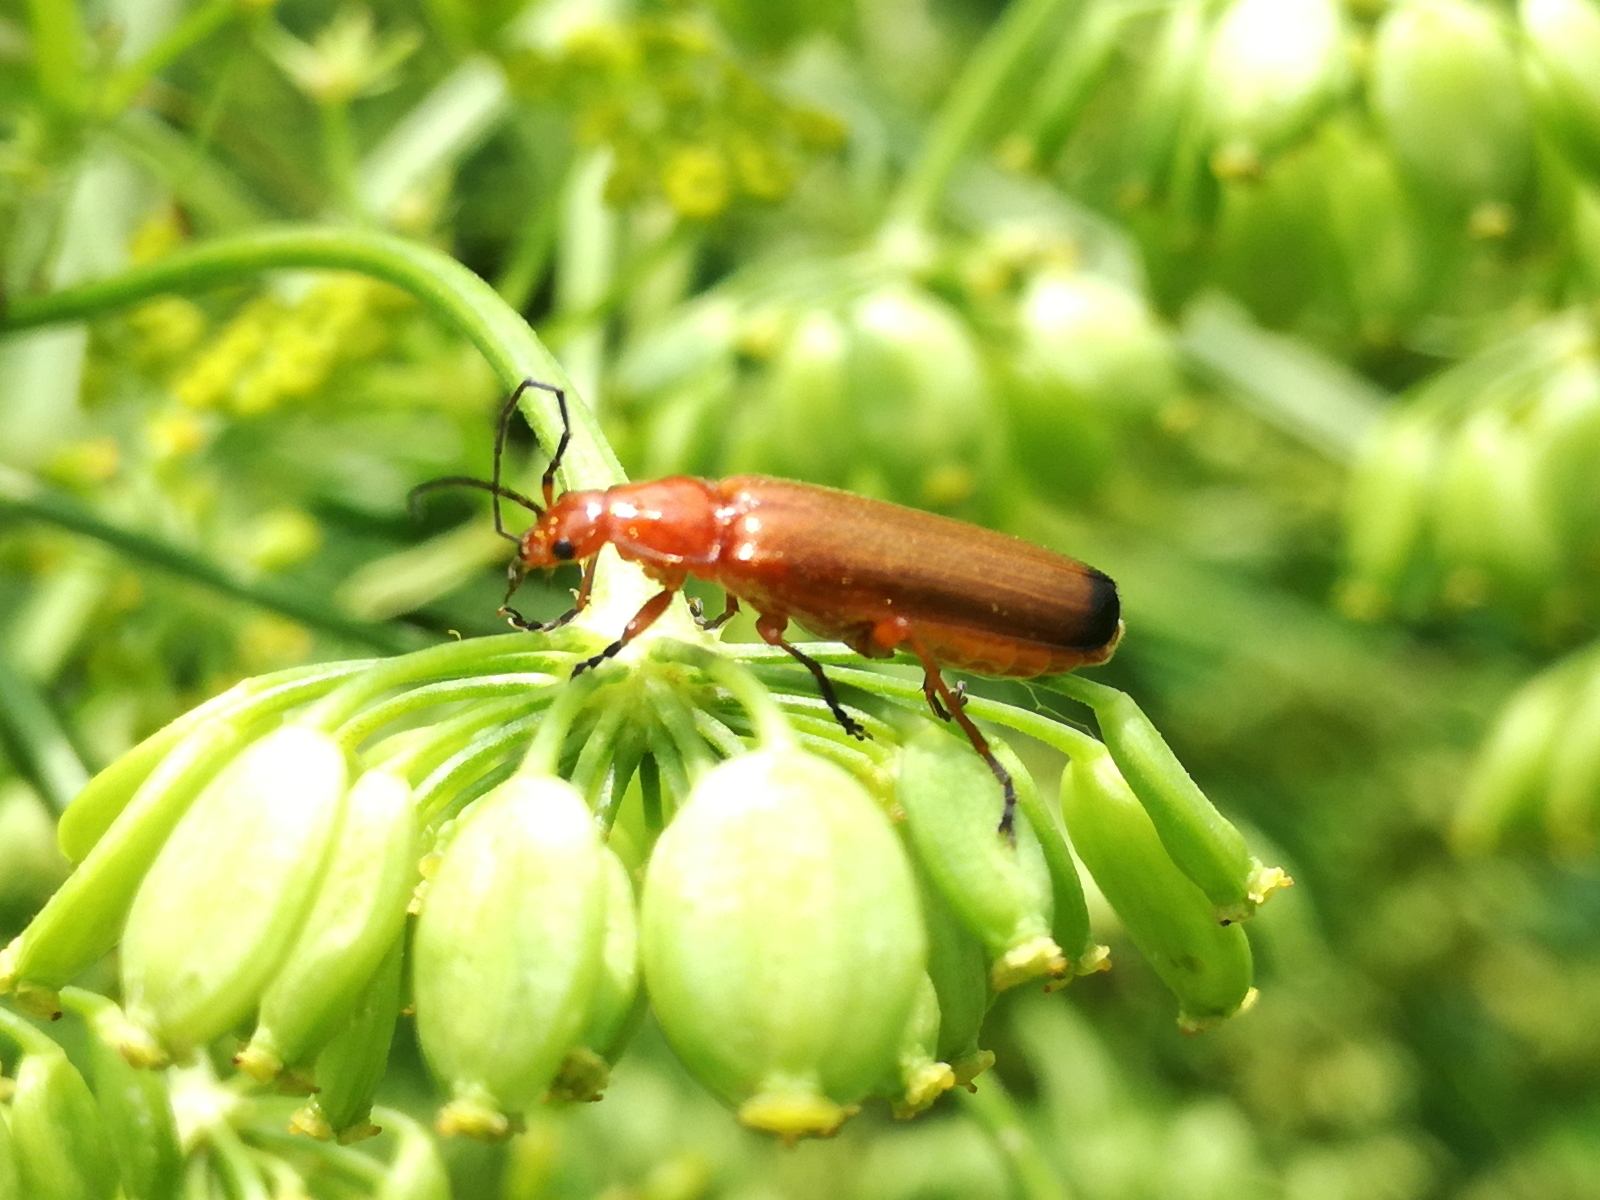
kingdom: Animalia
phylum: Arthropoda
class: Insecta
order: Coleoptera
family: Cantharidae
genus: Rhagonycha
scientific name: Rhagonycha fulva
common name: Common red soldier beetle
